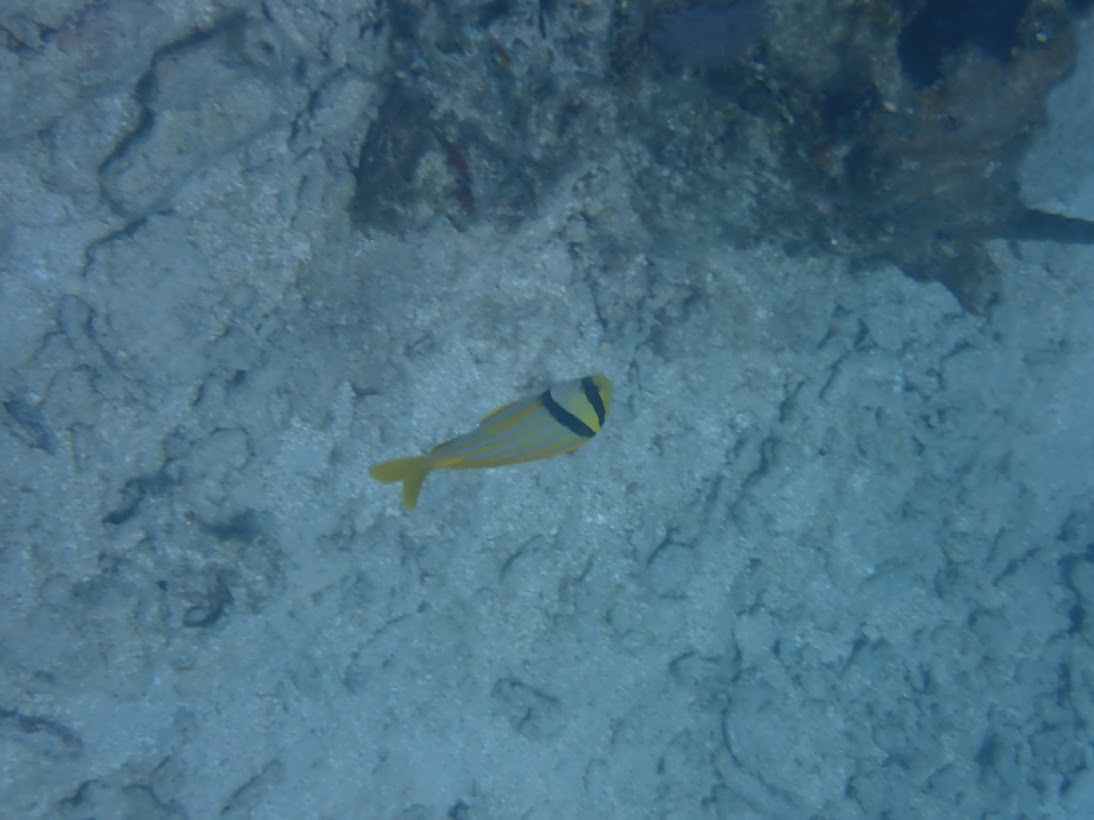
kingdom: Animalia
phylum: Chordata
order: Perciformes
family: Haemulidae
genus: Anisotremus
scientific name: Anisotremus virginicus
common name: Porkfish
